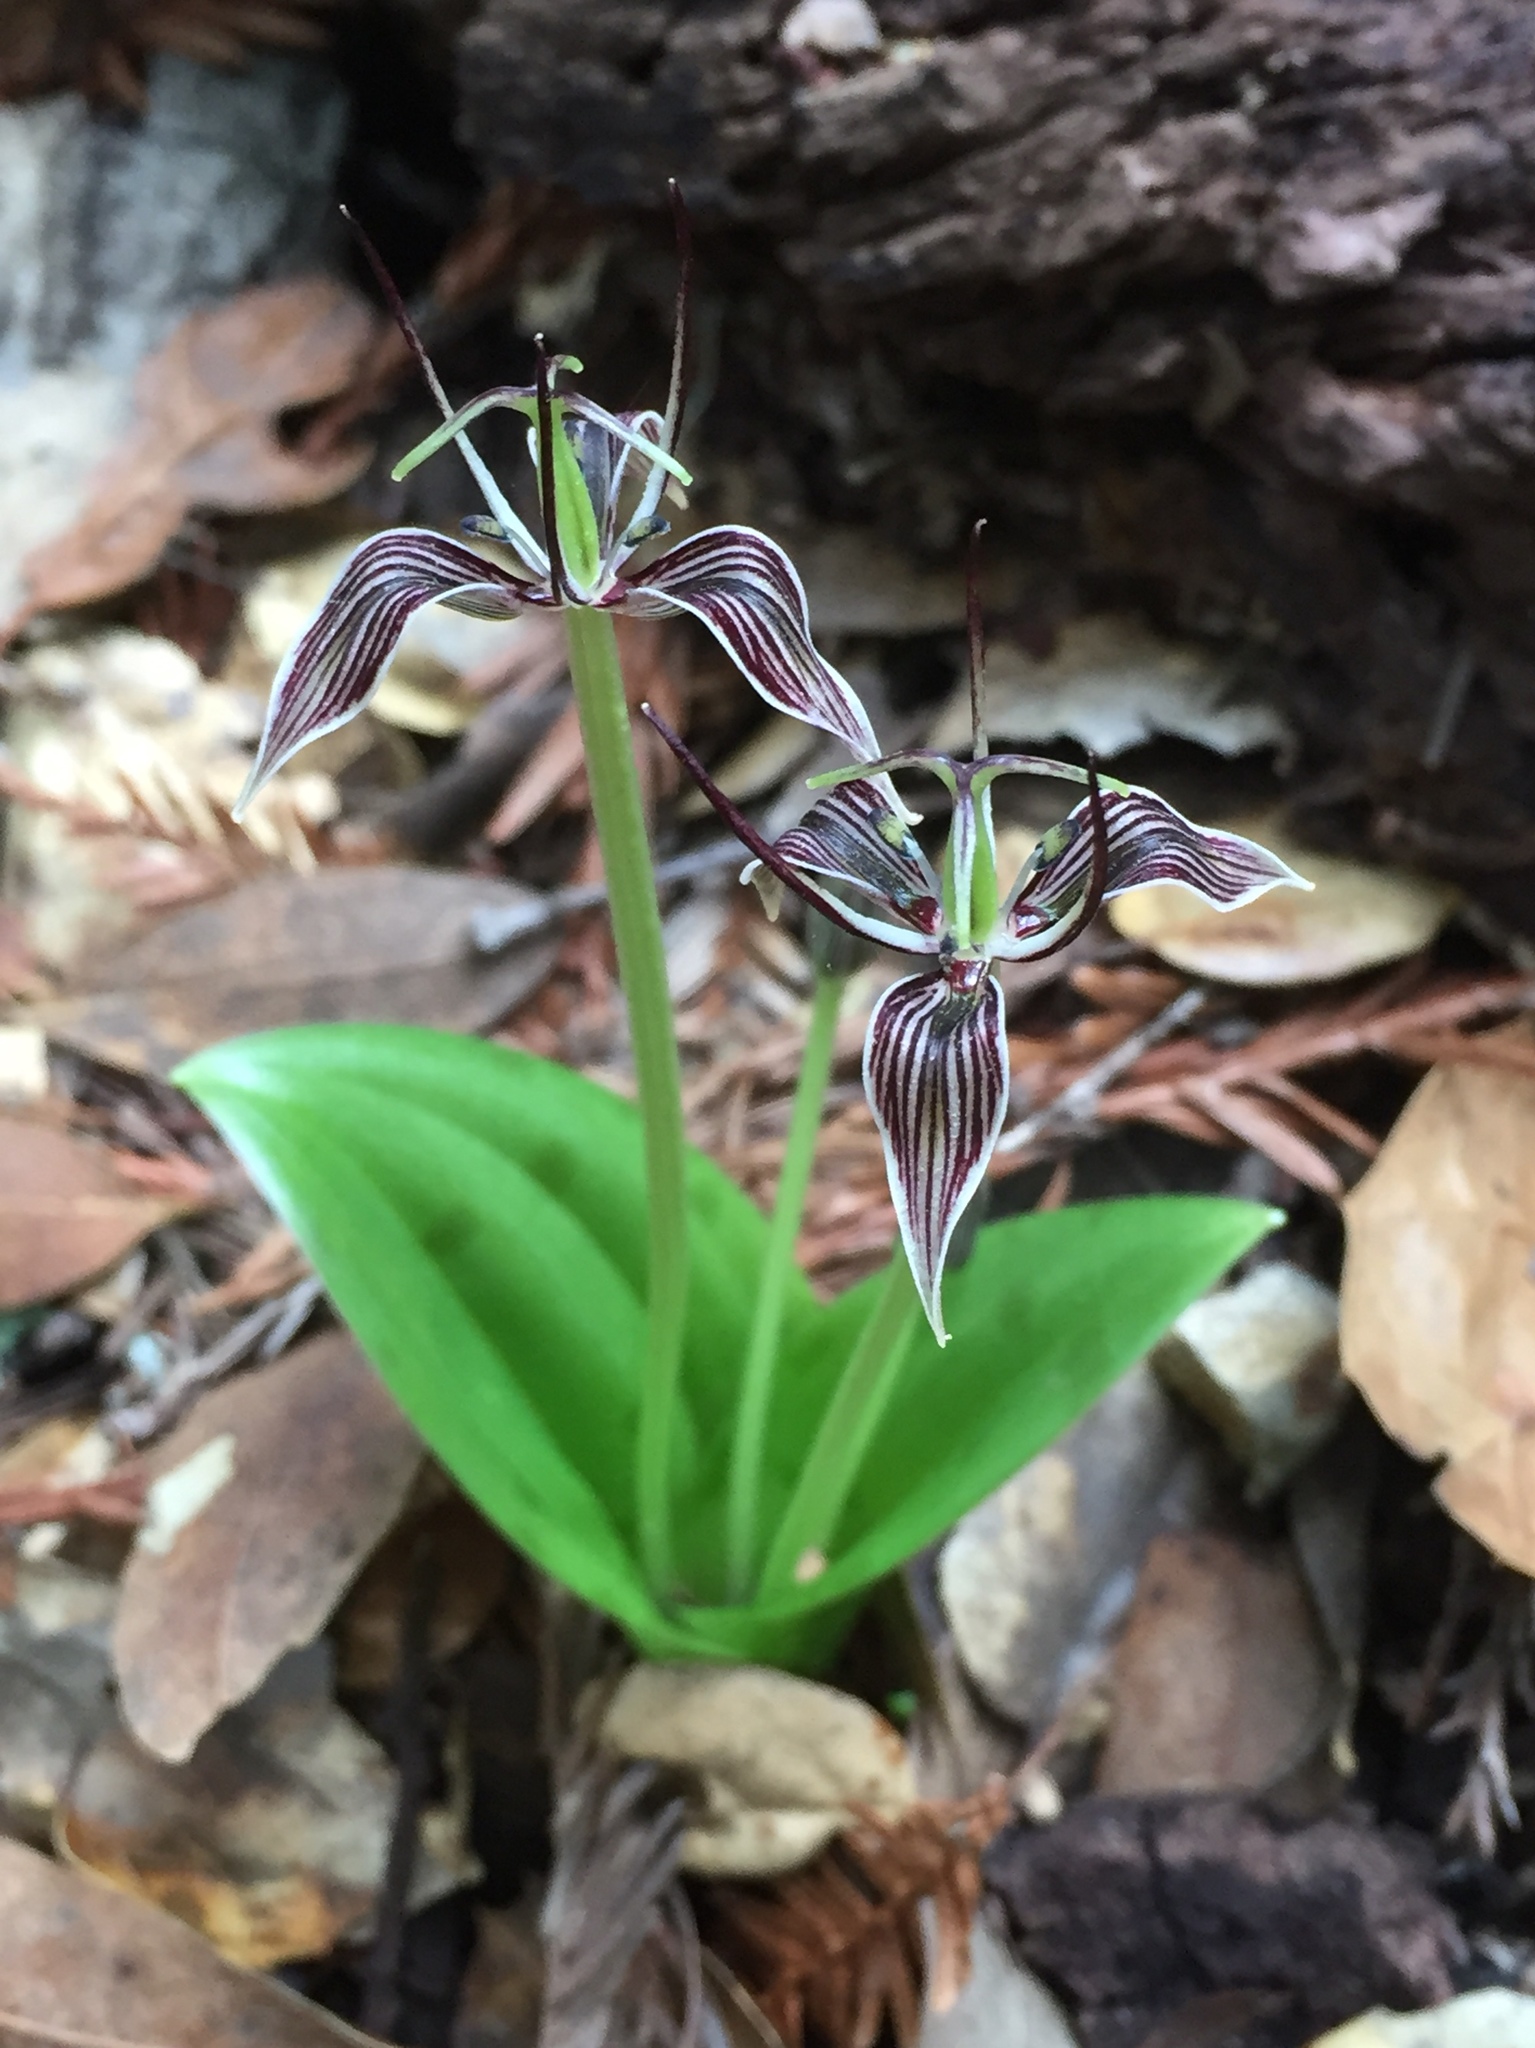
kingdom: Plantae
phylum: Tracheophyta
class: Liliopsida
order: Liliales
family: Liliaceae
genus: Scoliopus
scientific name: Scoliopus bigelovii
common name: Foetid adder's-tongue
